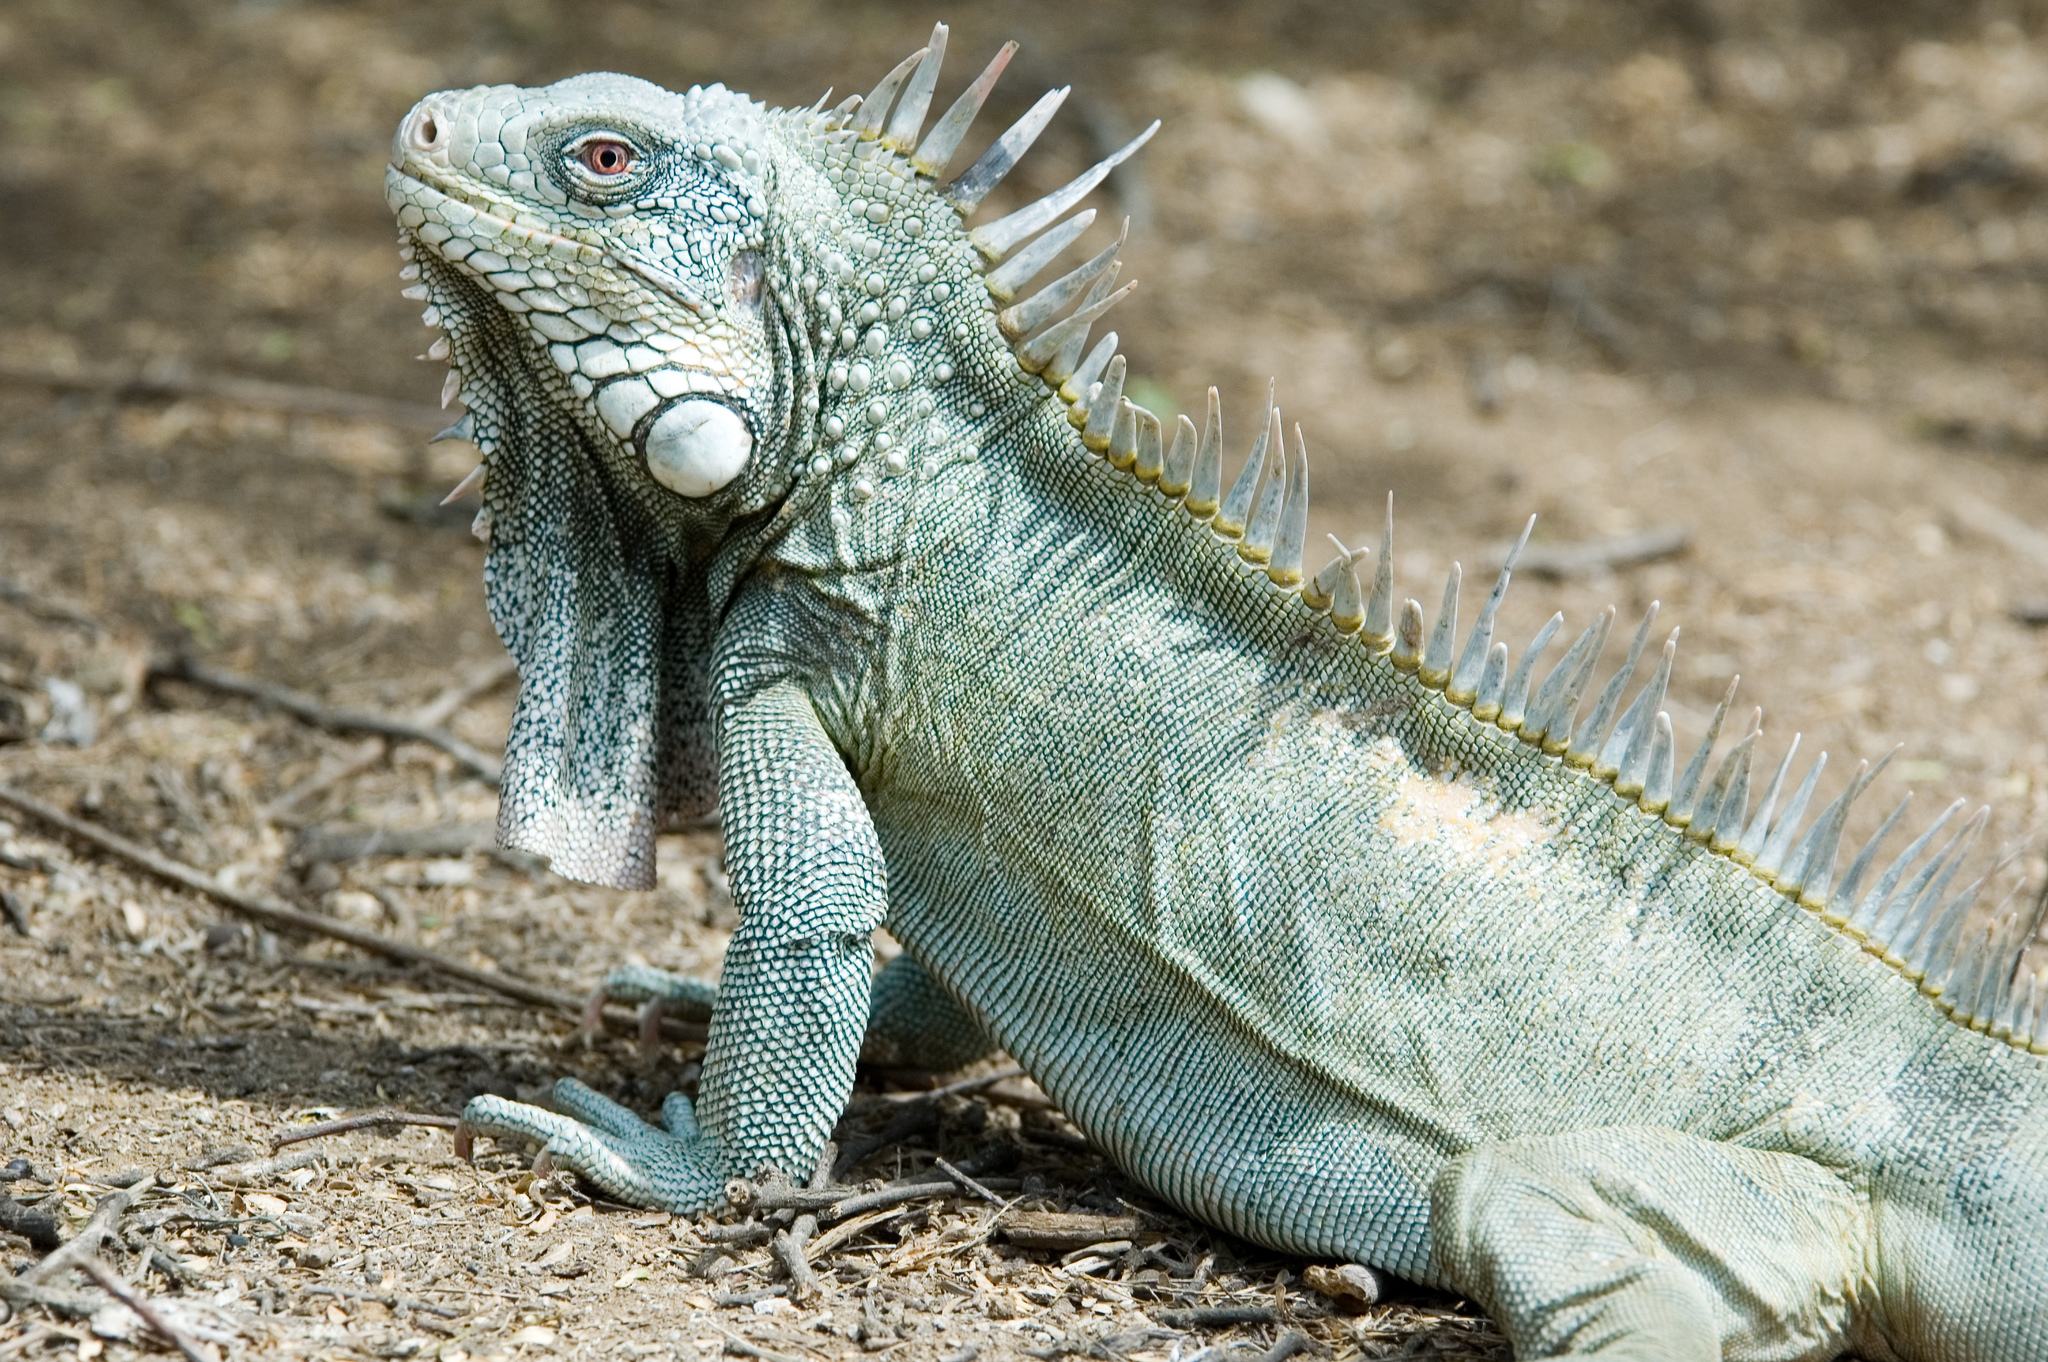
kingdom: Animalia
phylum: Chordata
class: Squamata
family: Iguanidae
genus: Iguana
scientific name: Iguana iguana
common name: Green iguana
